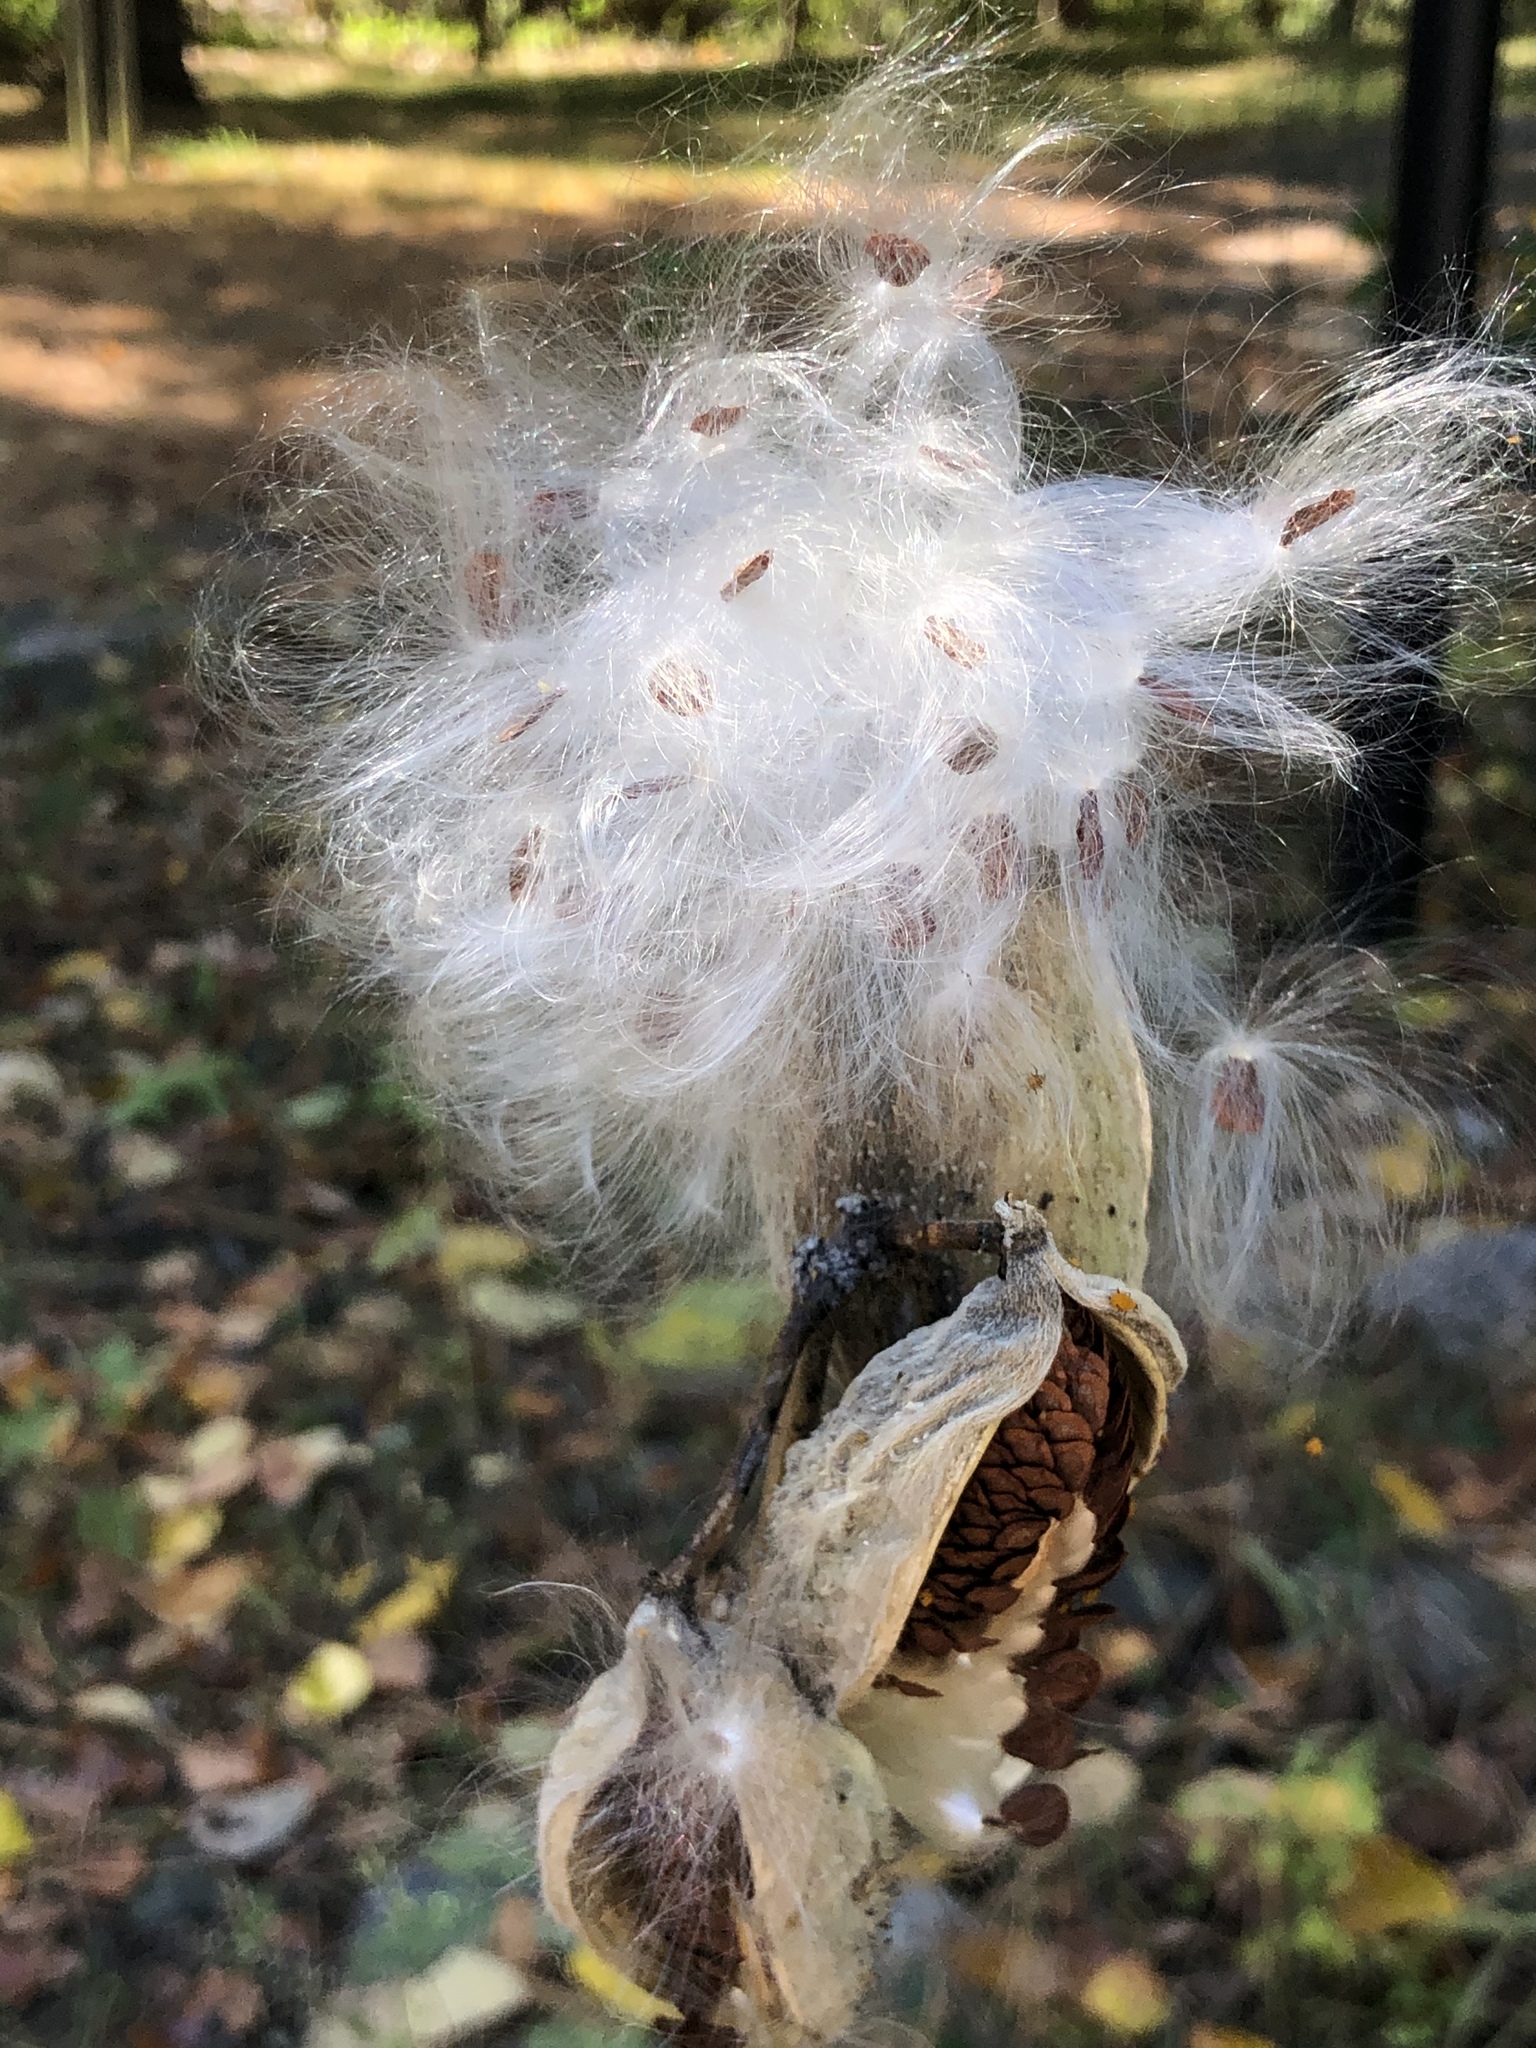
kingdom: Plantae
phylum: Tracheophyta
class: Magnoliopsida
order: Gentianales
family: Apocynaceae
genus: Asclepias
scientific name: Asclepias syriaca
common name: Common milkweed
